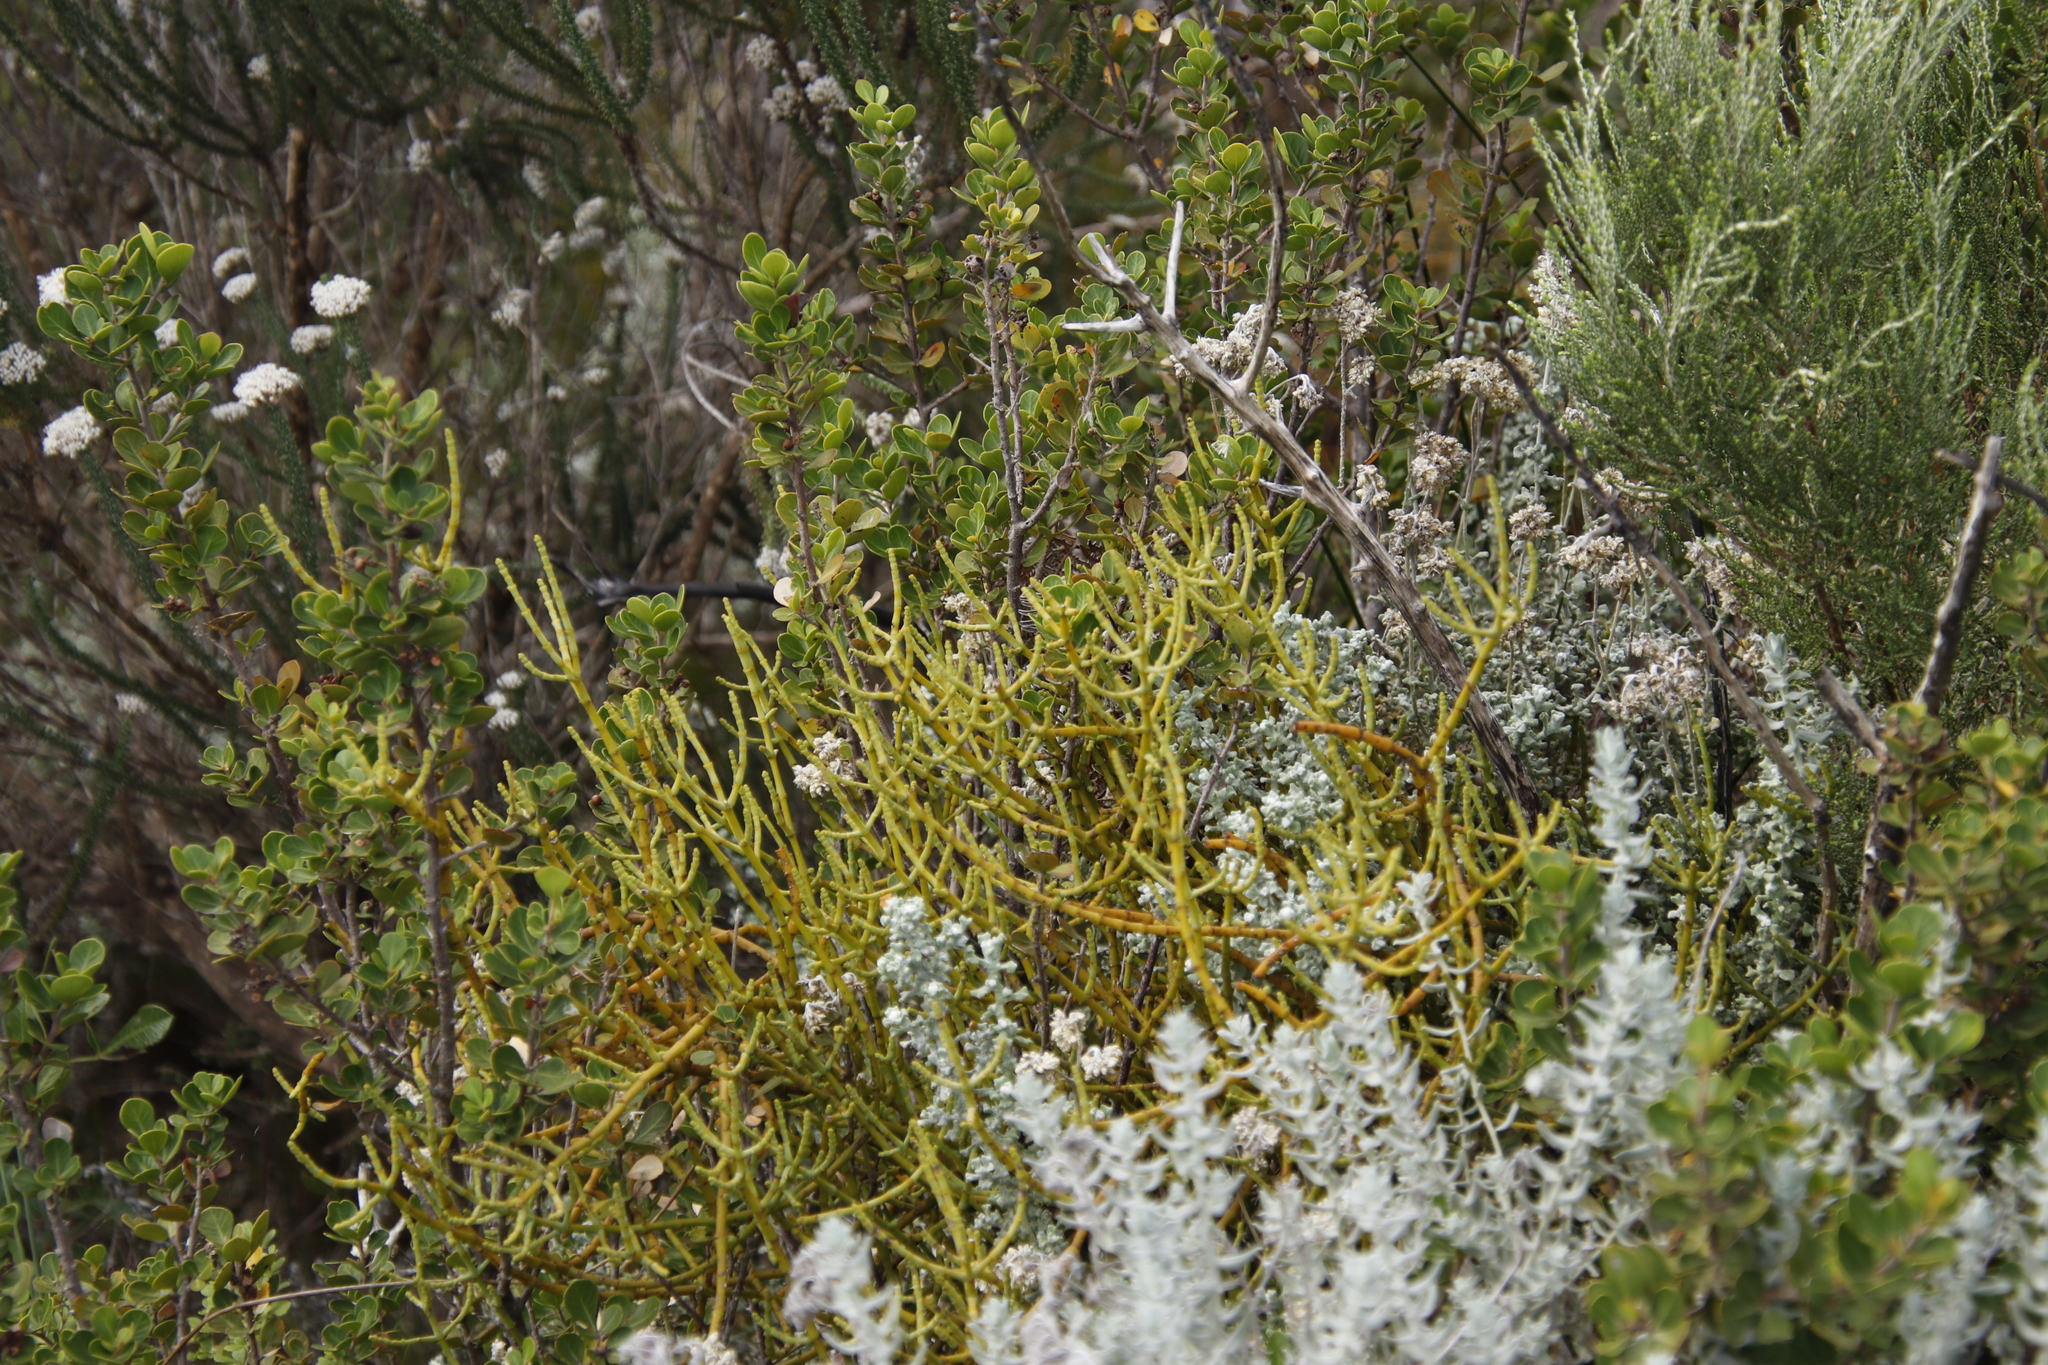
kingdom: Plantae
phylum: Tracheophyta
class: Magnoliopsida
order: Santalales
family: Viscaceae
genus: Viscum
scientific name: Viscum capense
